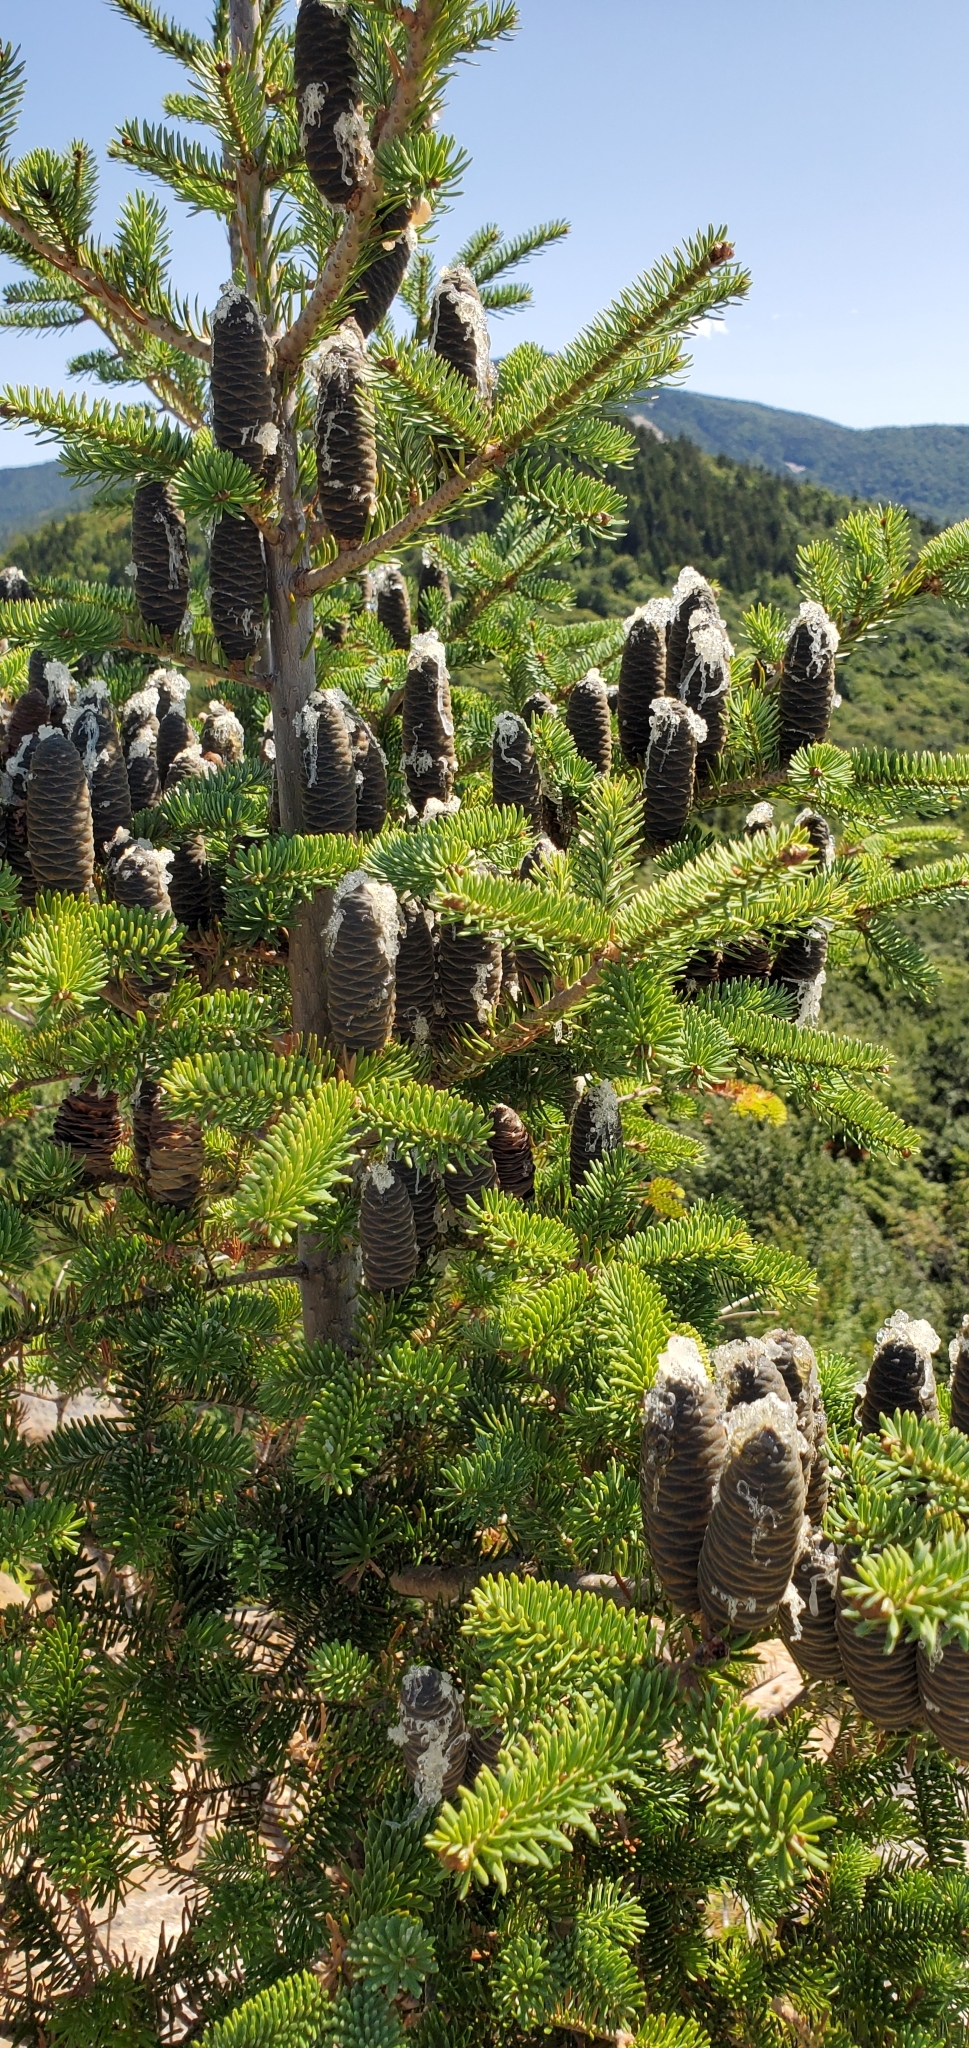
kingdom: Plantae
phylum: Tracheophyta
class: Pinopsida
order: Pinales
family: Pinaceae
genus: Abies
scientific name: Abies balsamea
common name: Balsam fir
